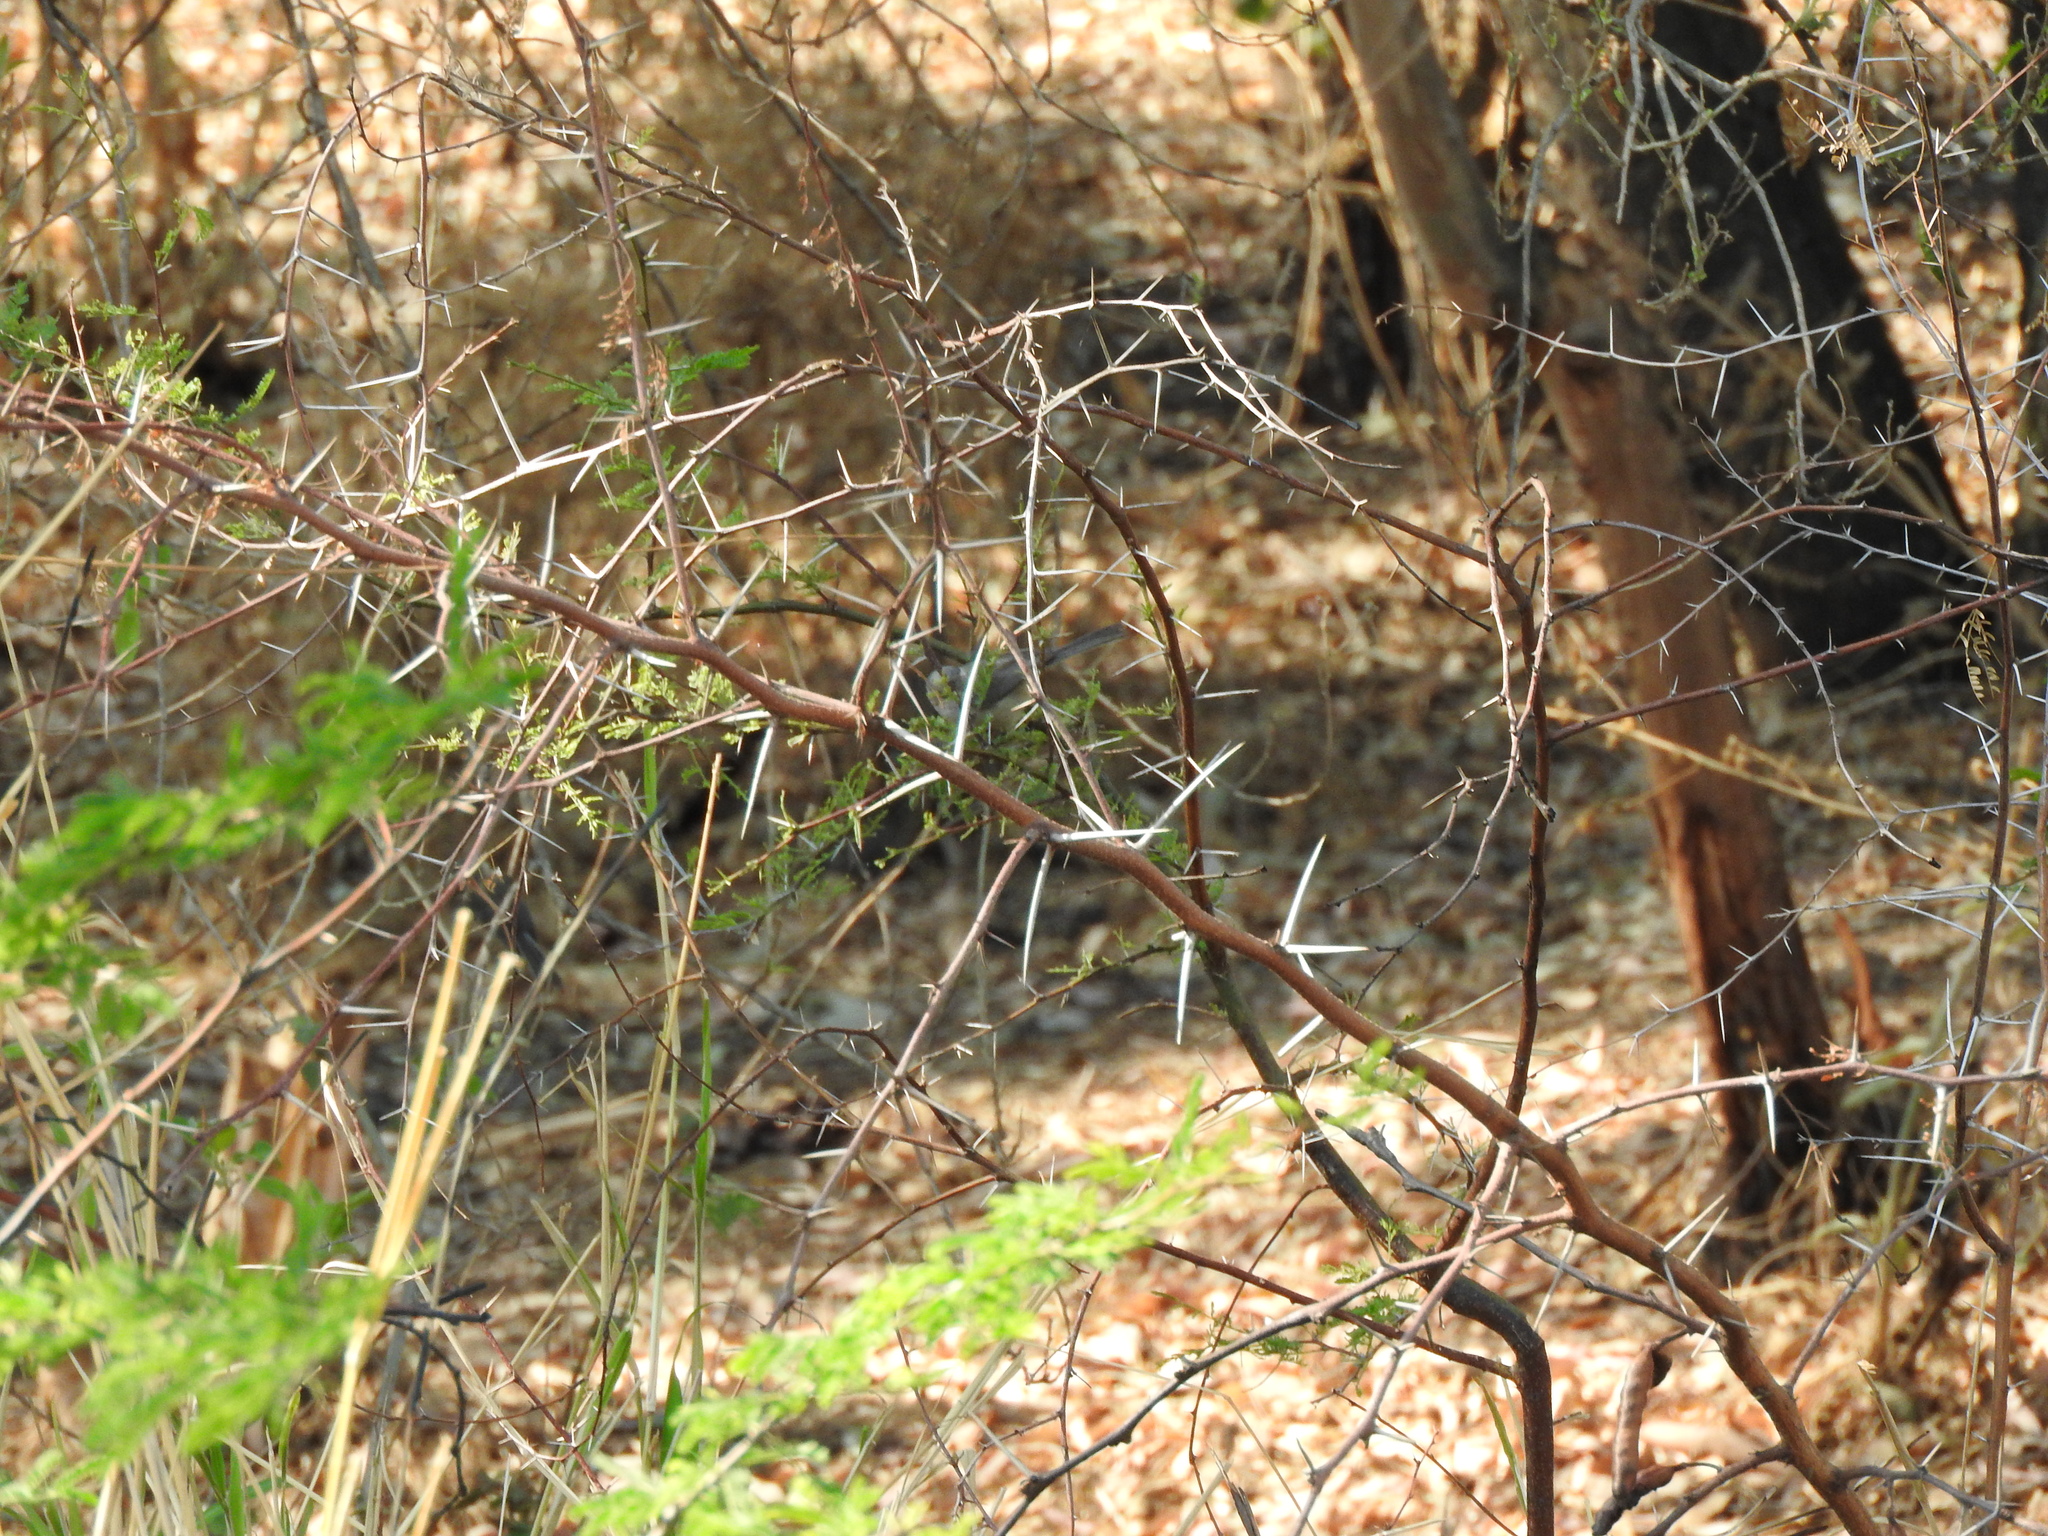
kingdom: Animalia
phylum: Chordata
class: Aves
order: Passeriformes
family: Aegithalidae
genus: Psaltriparus
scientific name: Psaltriparus minimus
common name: American bushtit
